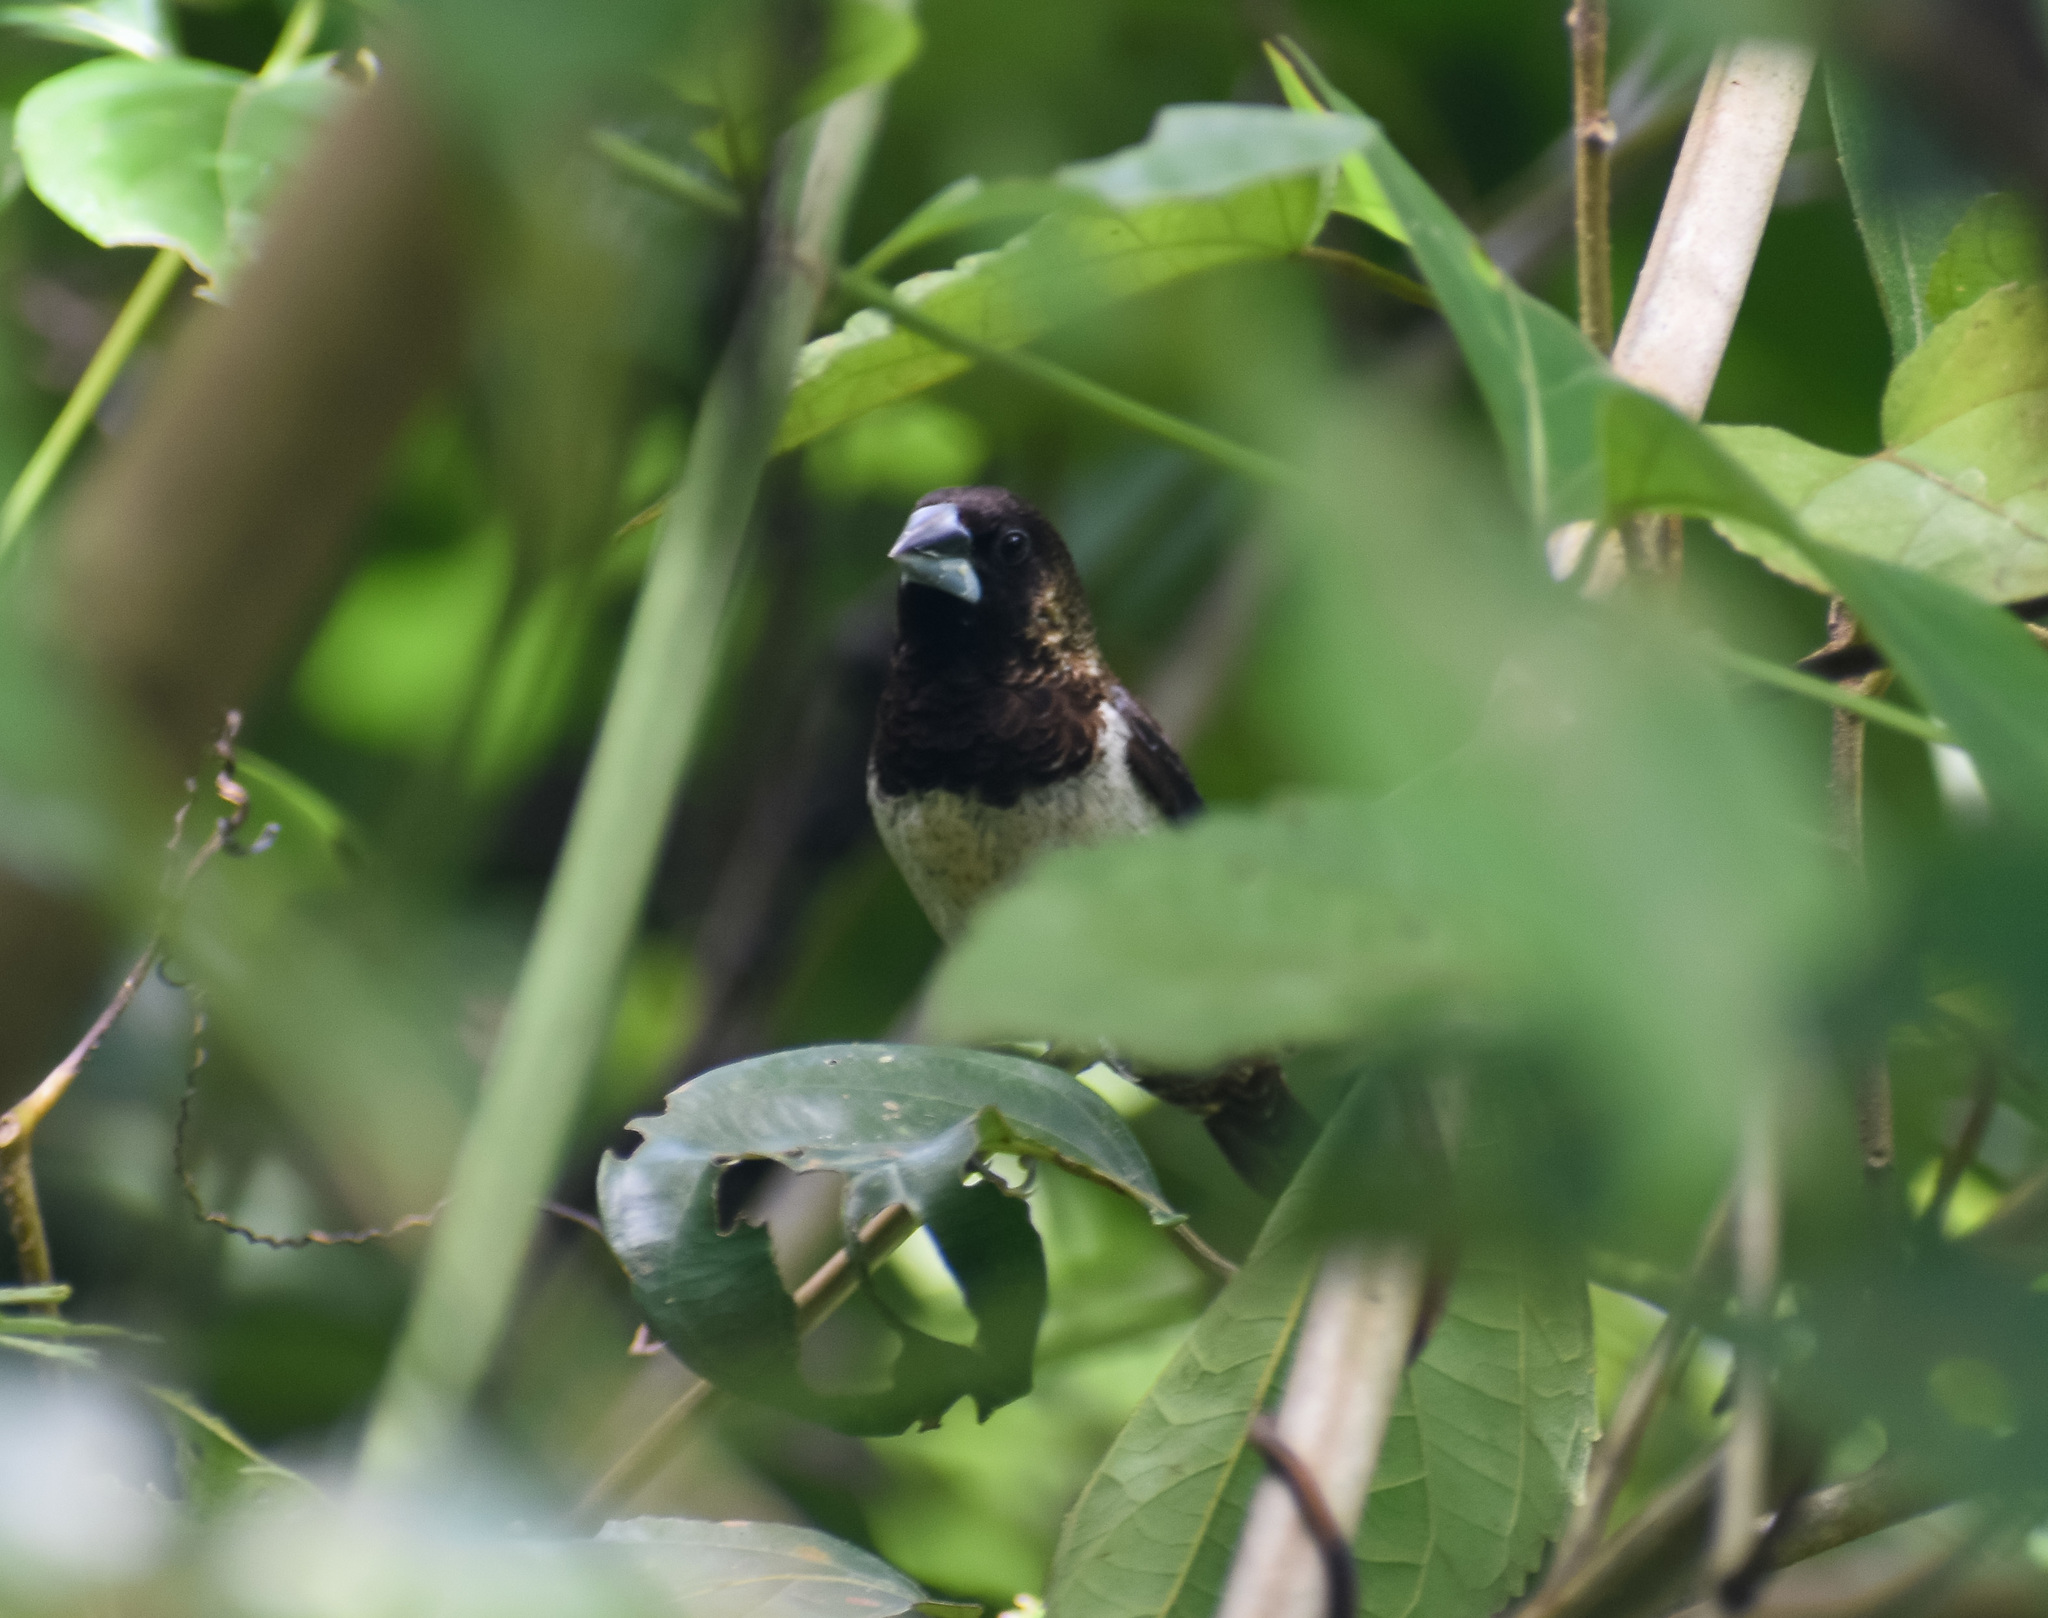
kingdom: Animalia
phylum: Chordata
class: Aves
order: Passeriformes
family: Estrildidae
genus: Lonchura
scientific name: Lonchura striata
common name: White-rumped munia
